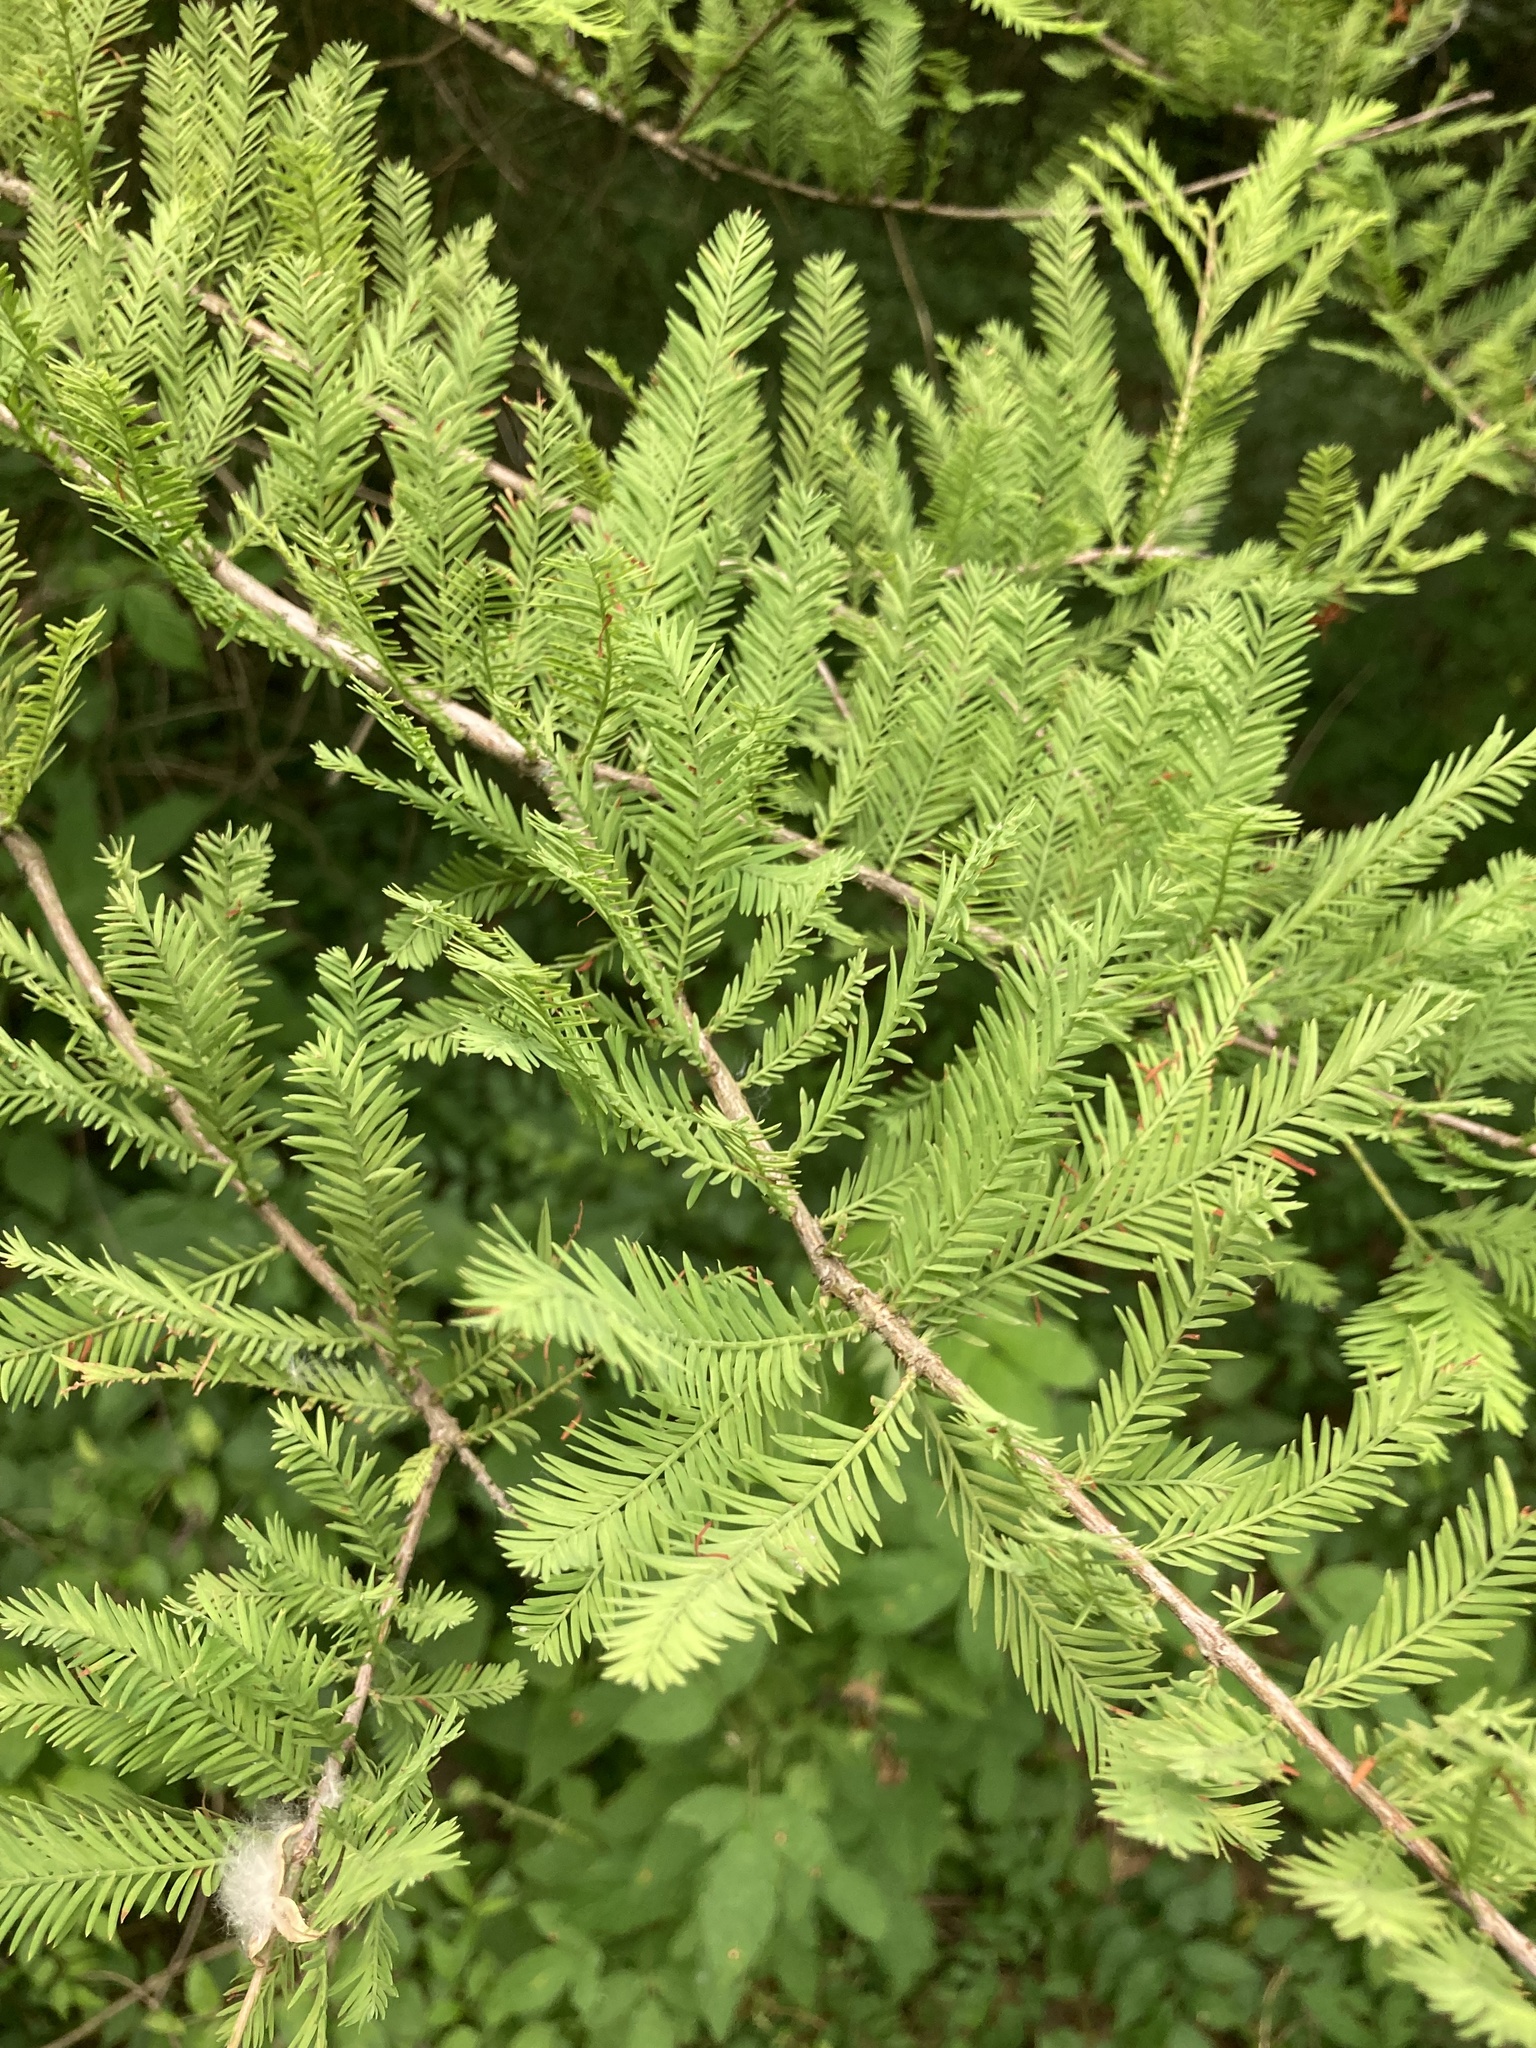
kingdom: Plantae
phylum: Tracheophyta
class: Pinopsida
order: Pinales
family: Cupressaceae
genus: Taxodium
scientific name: Taxodium distichum
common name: Bald cypress
